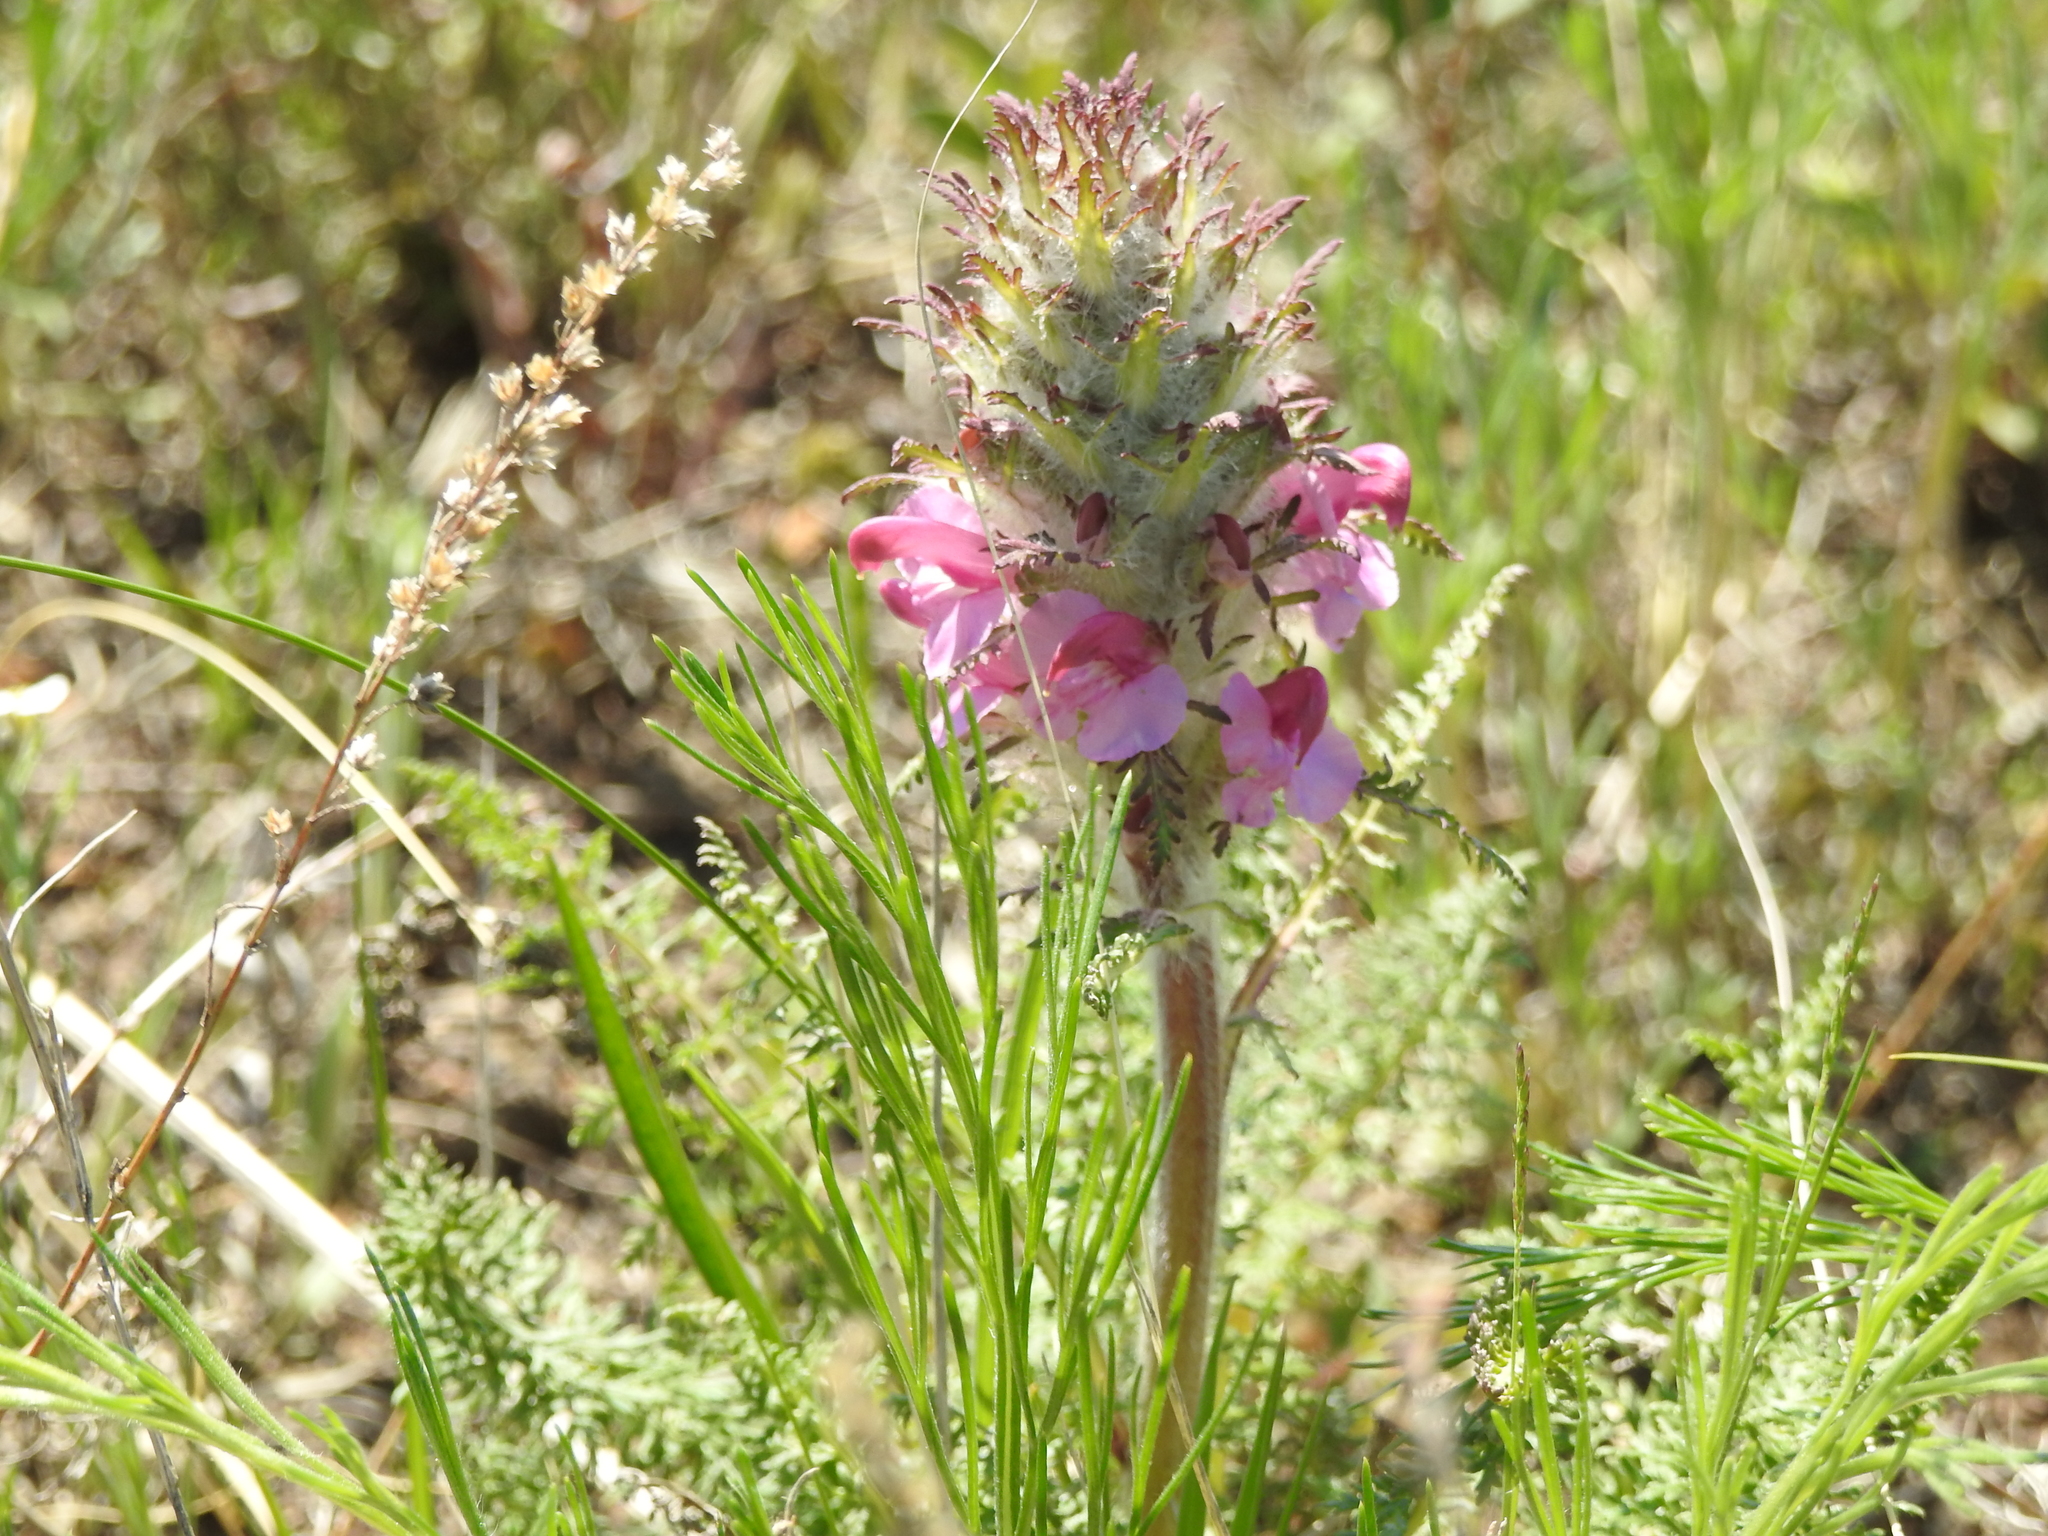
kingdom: Plantae
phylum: Tracheophyta
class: Magnoliopsida
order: Lamiales
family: Orobanchaceae
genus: Pedicularis
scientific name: Pedicularis rubens
